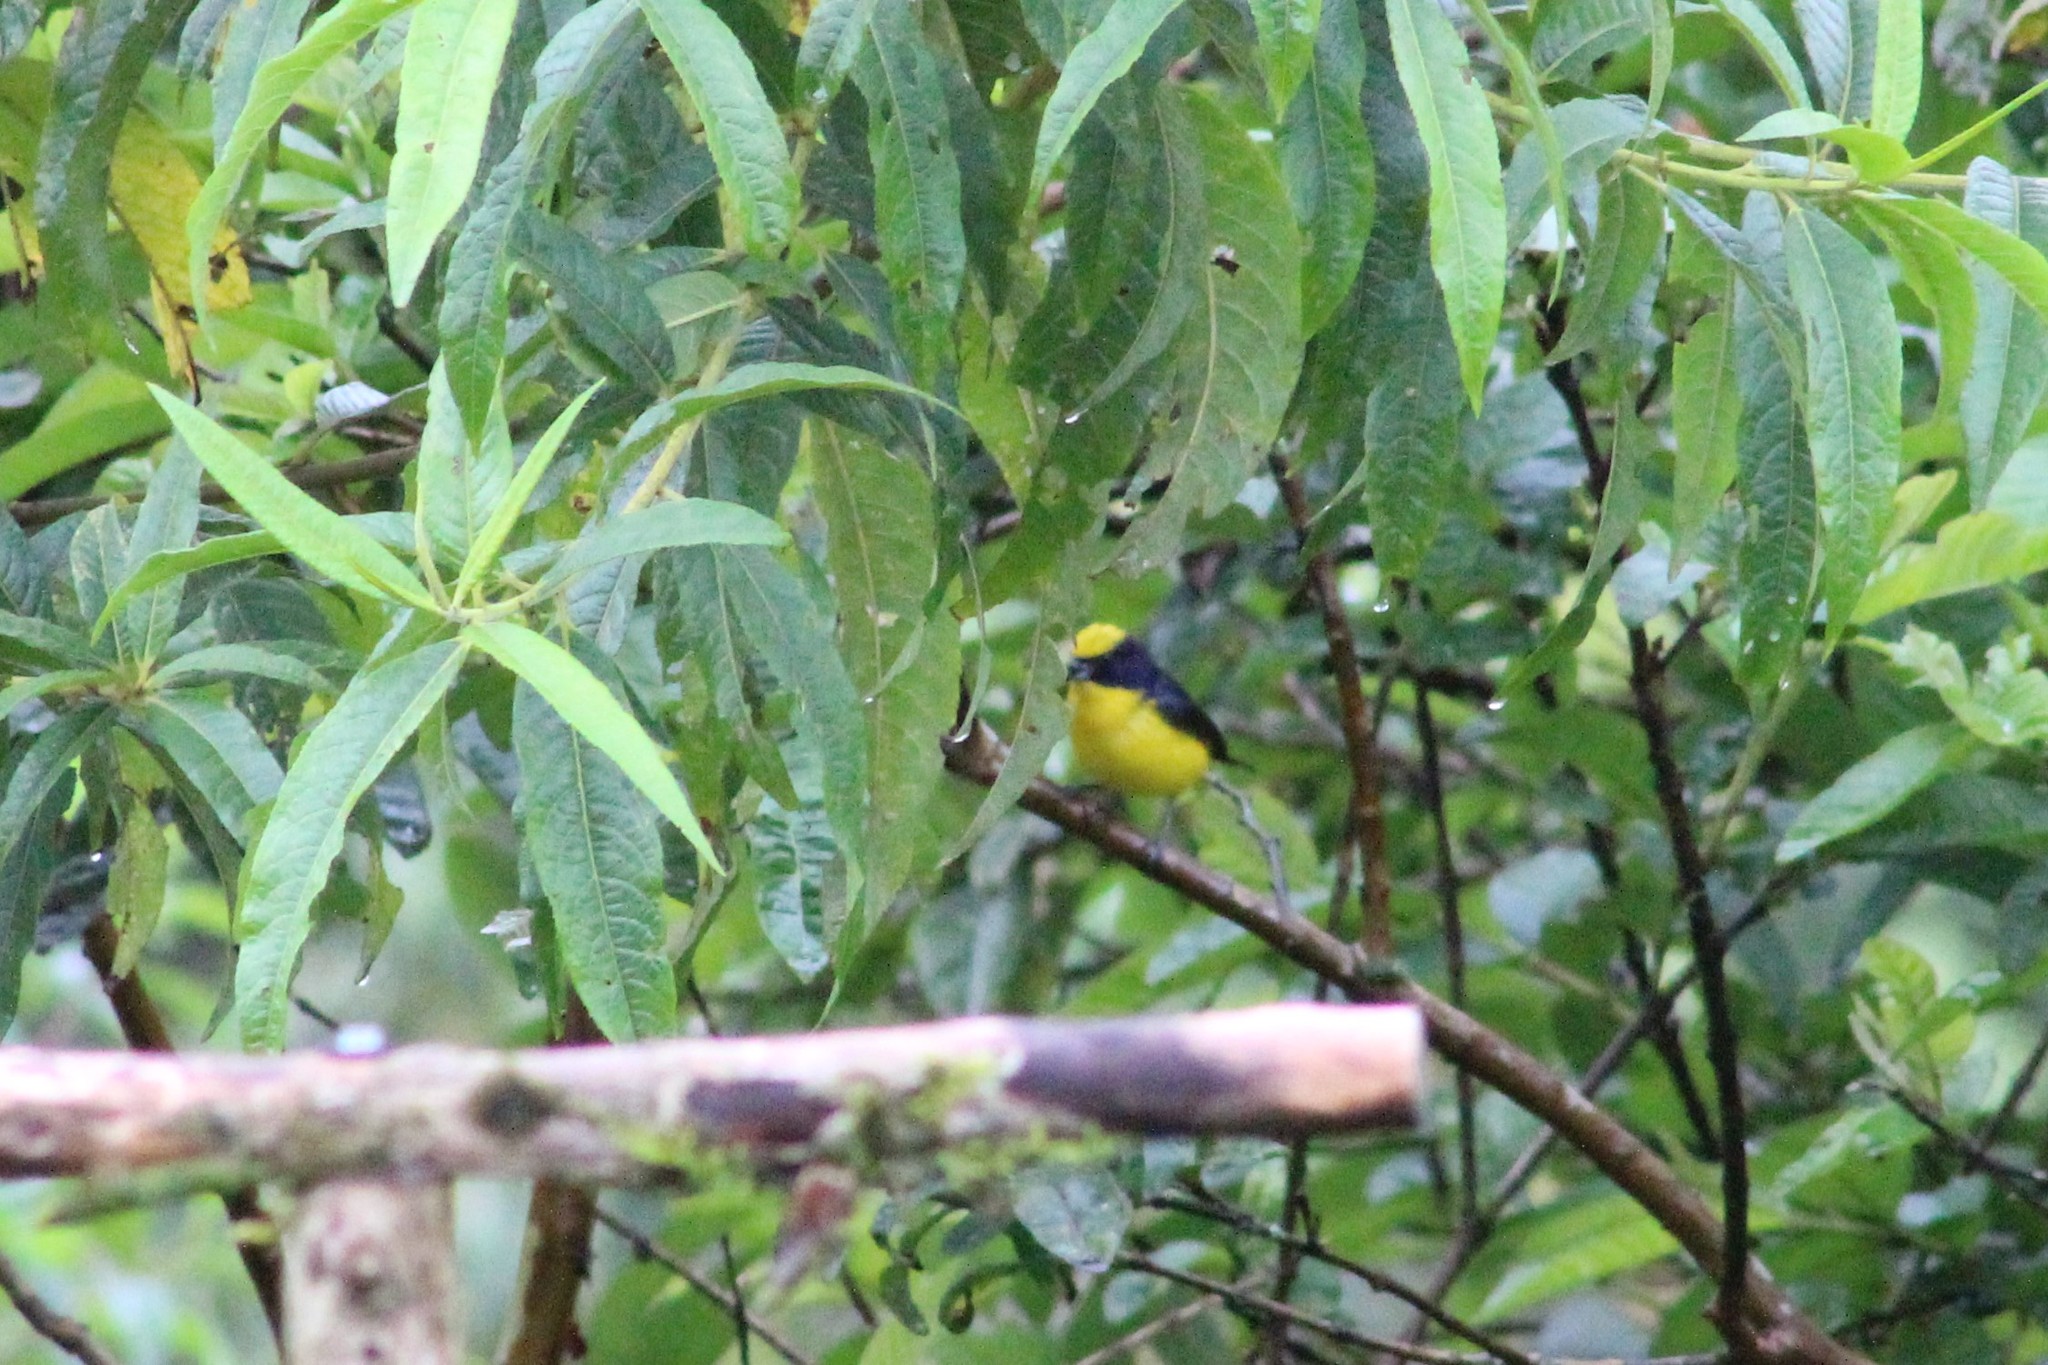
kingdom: Animalia
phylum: Chordata
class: Aves
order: Passeriformes
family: Fringillidae
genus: Euphonia
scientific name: Euphonia laniirostris
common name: Thick-billed euphonia
